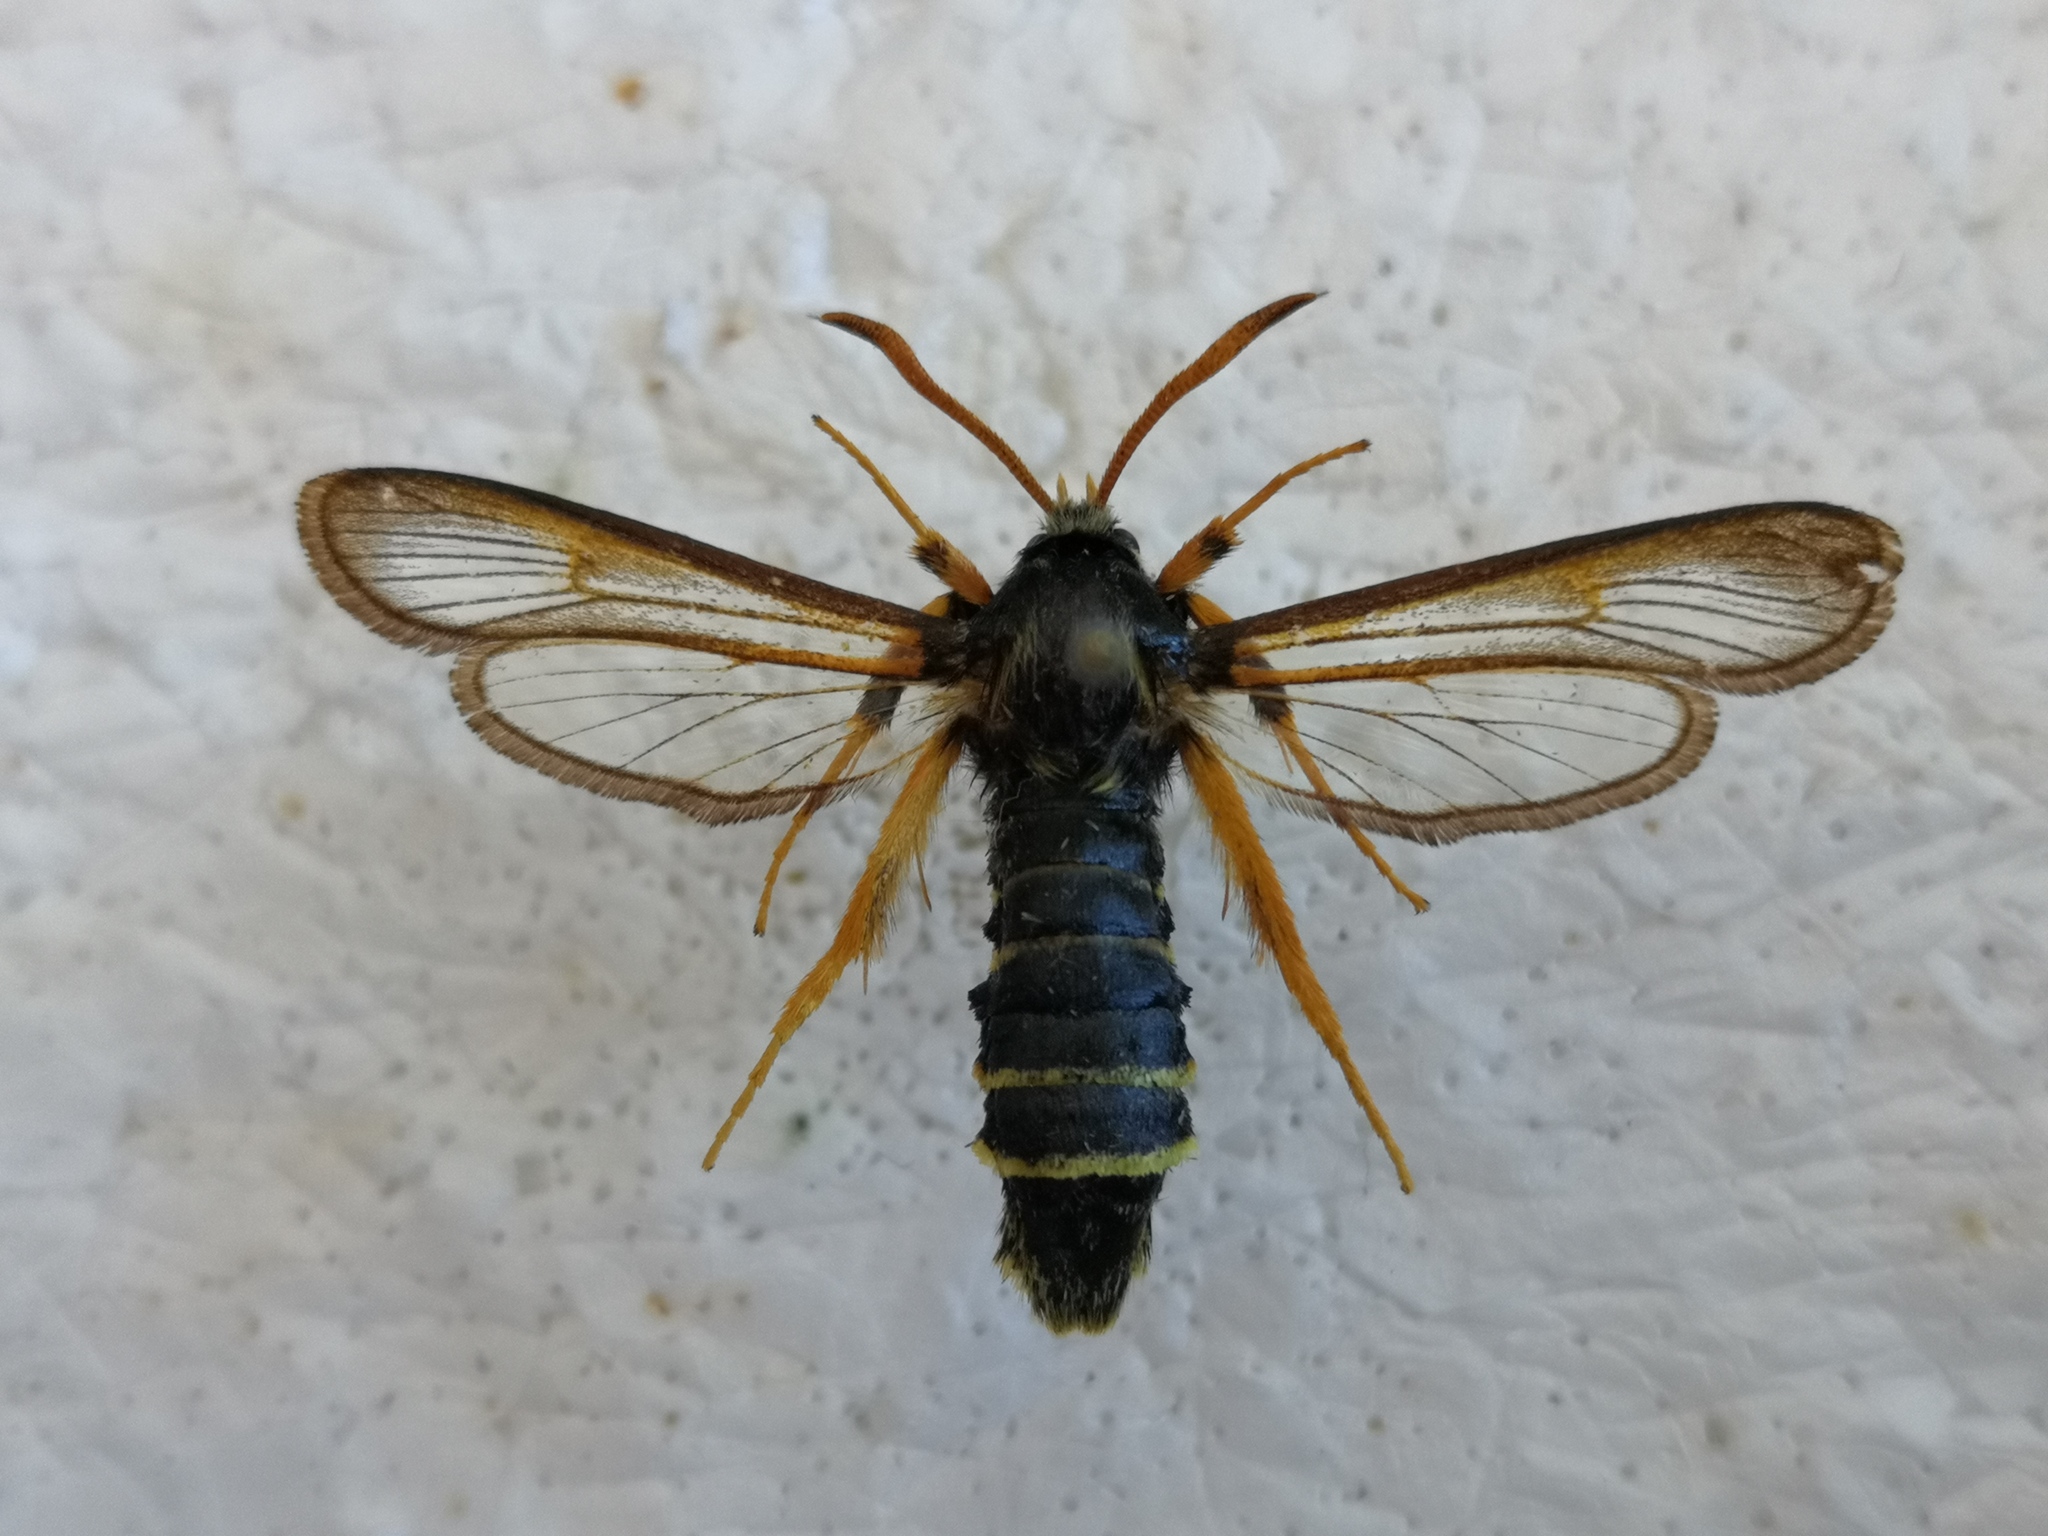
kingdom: Animalia
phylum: Arthropoda
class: Insecta
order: Lepidoptera
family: Sesiidae
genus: Eusphecia
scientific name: Eusphecia melanocephala
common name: Aspen clearwing
